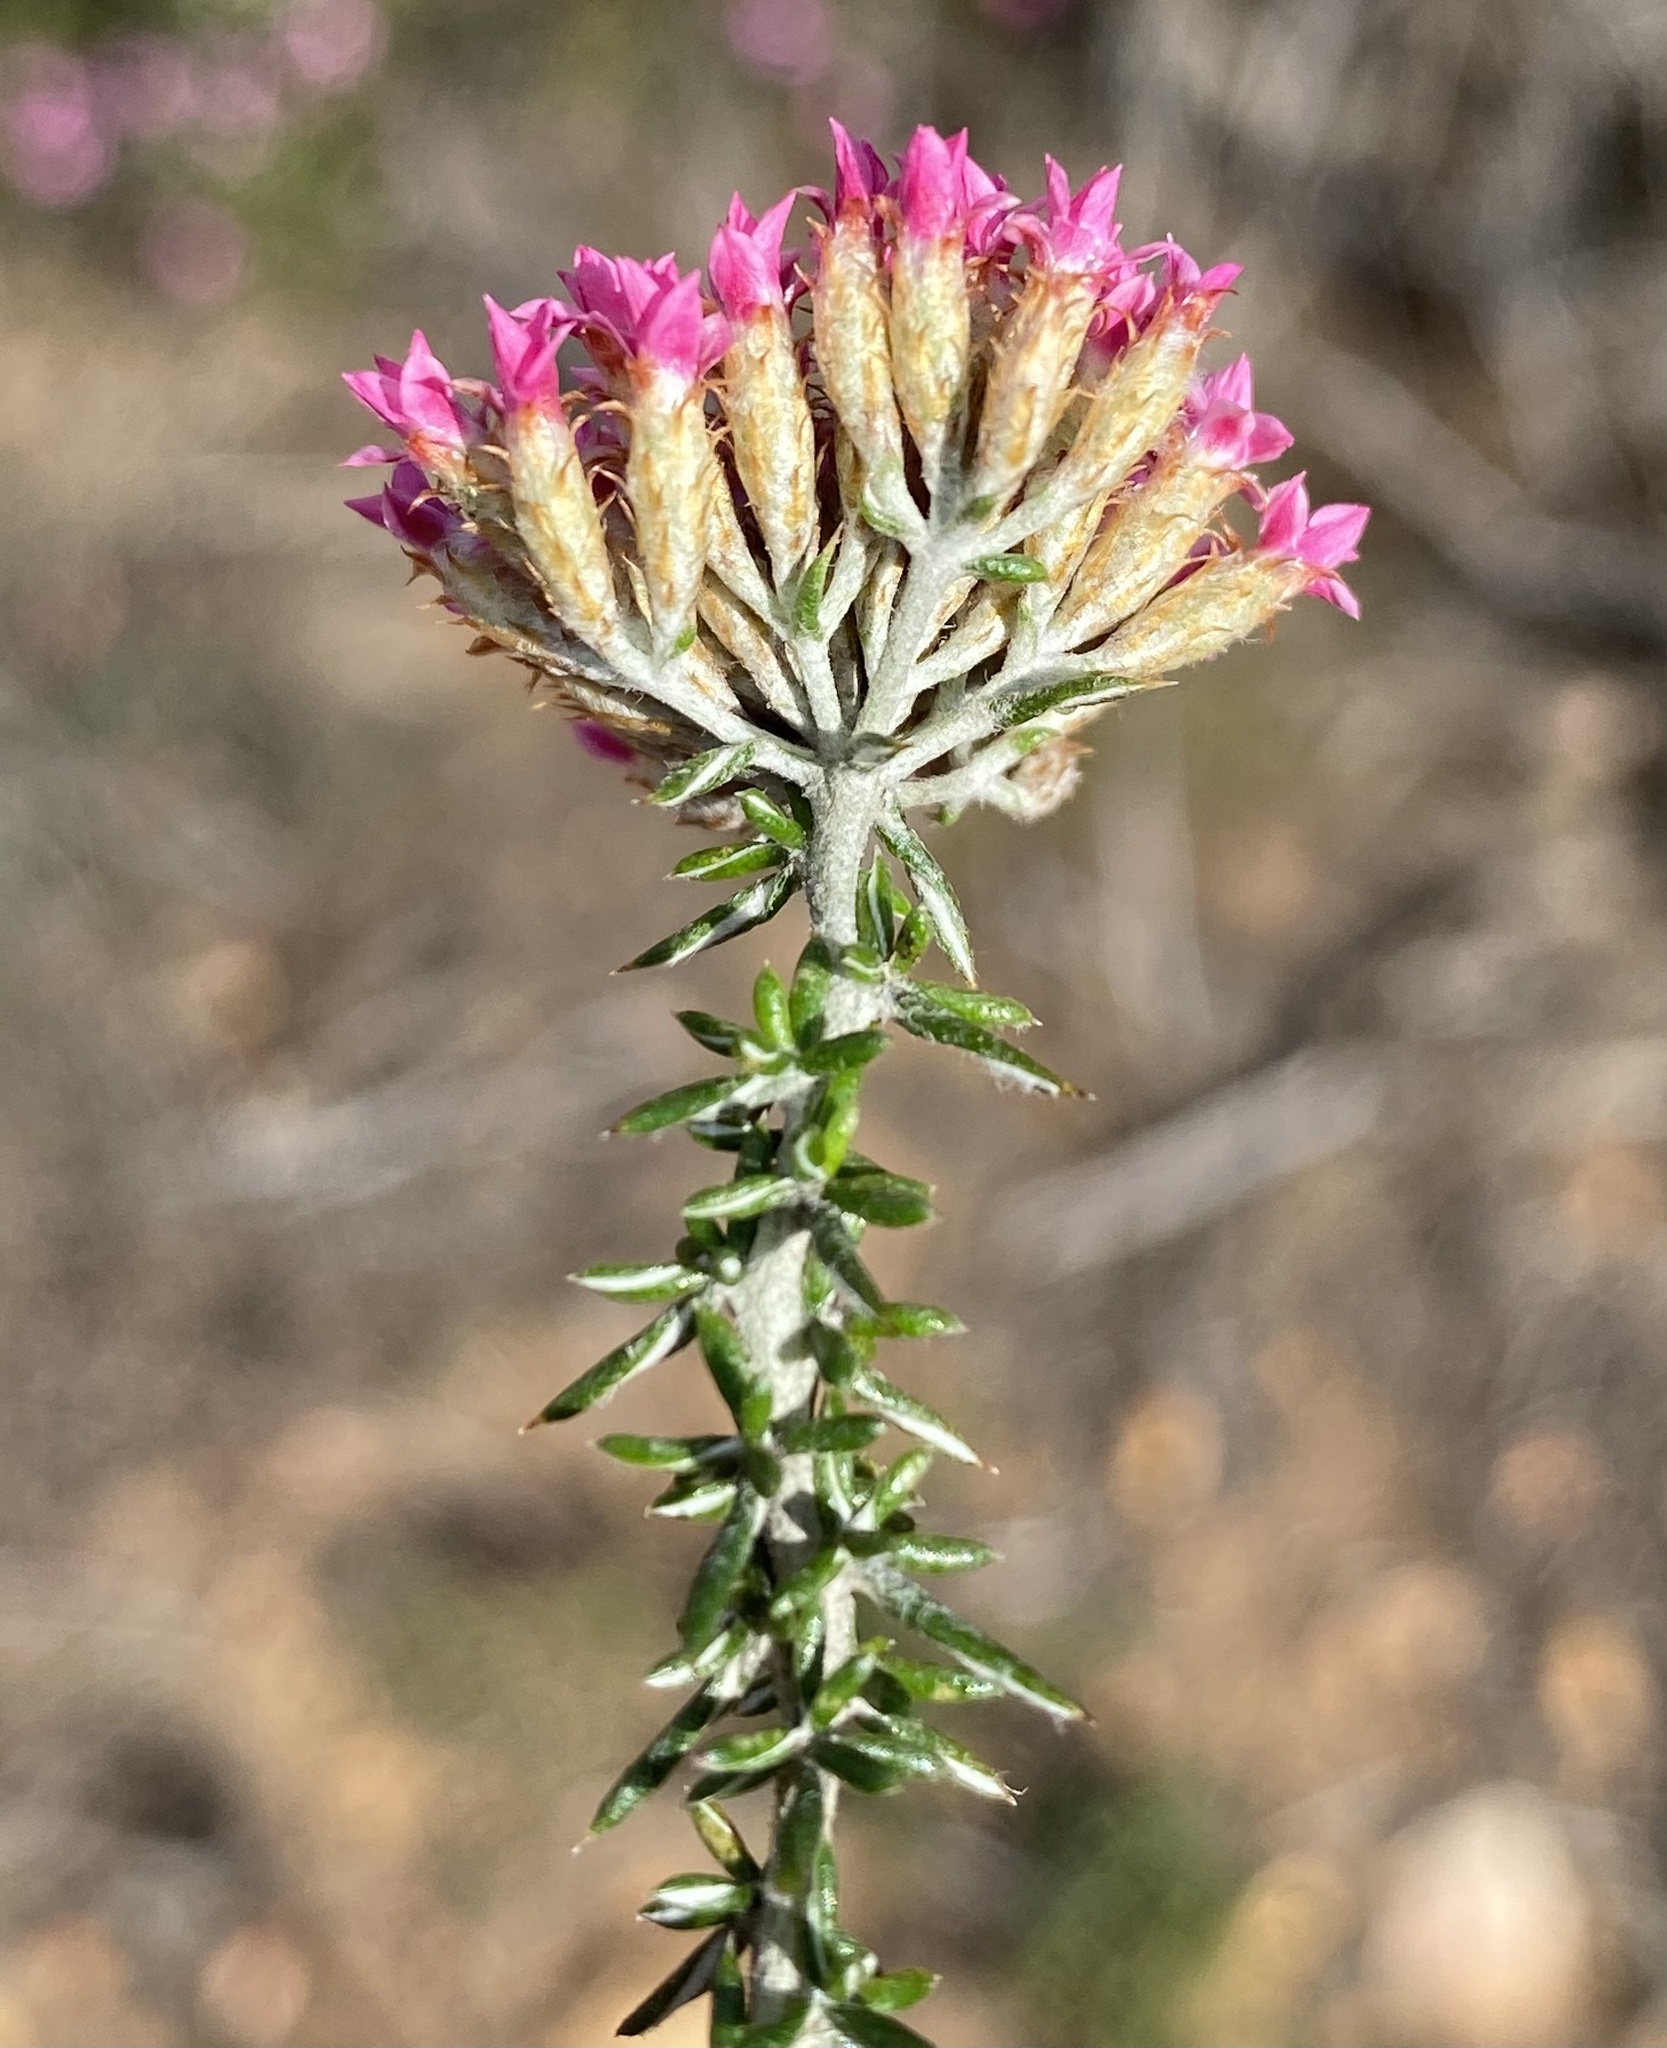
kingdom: Plantae
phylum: Tracheophyta
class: Magnoliopsida
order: Asterales
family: Asteraceae
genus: Metalasia
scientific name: Metalasia massonii
